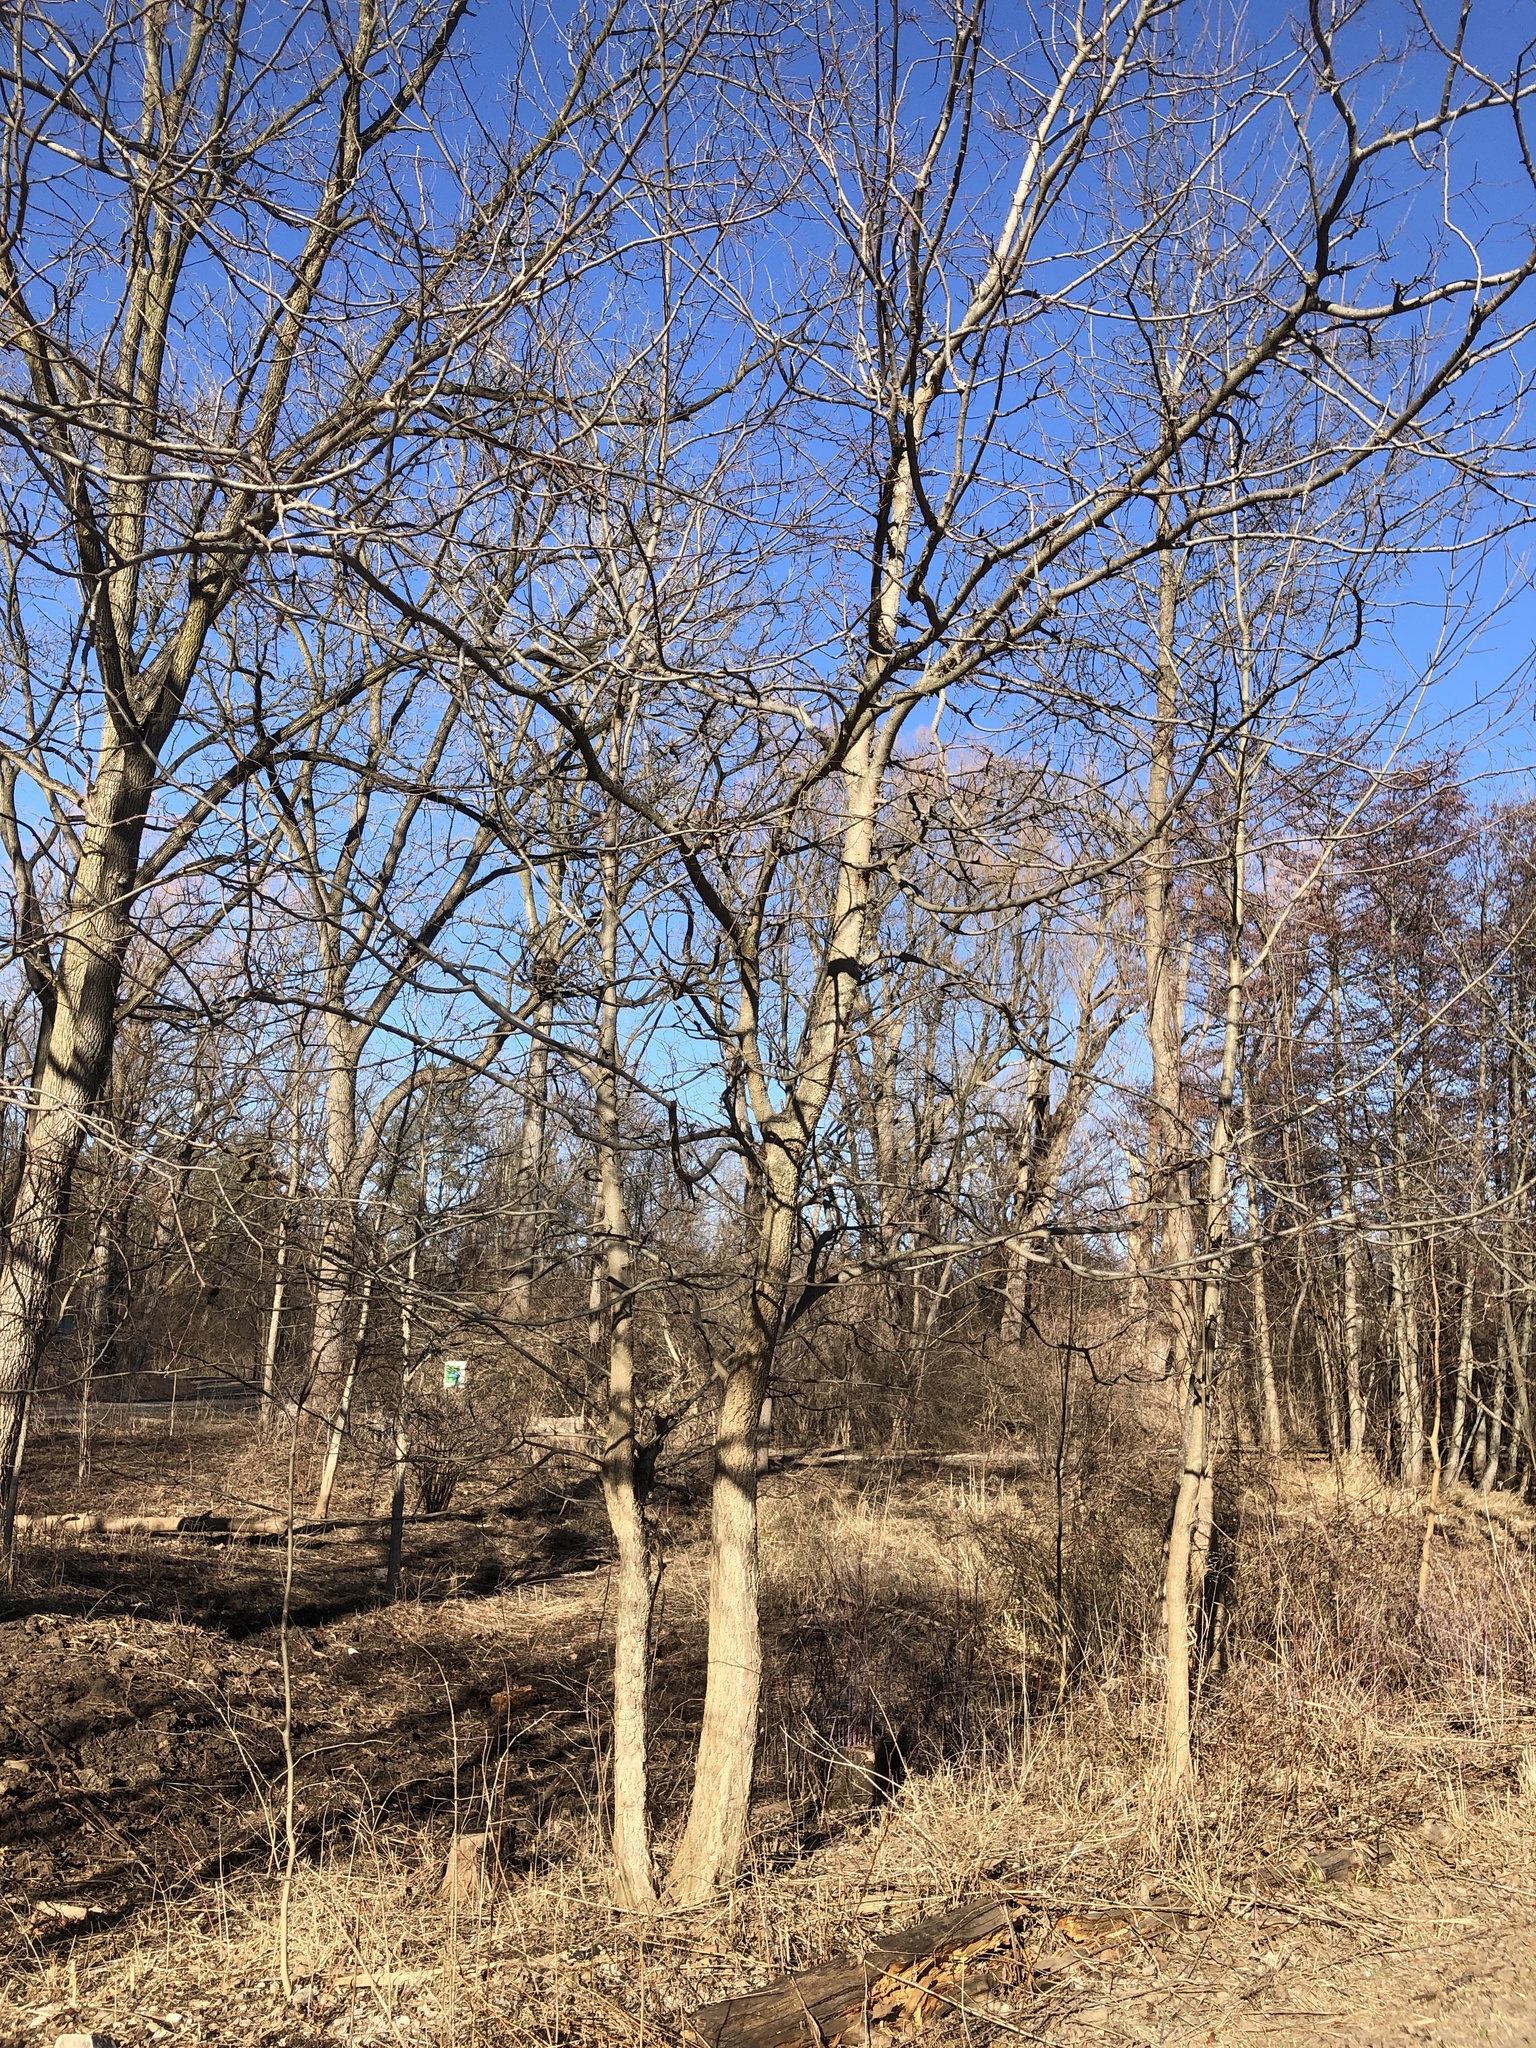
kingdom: Plantae
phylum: Tracheophyta
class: Magnoliopsida
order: Rosales
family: Cannabaceae
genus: Celtis
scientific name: Celtis occidentalis
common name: Common hackberry
